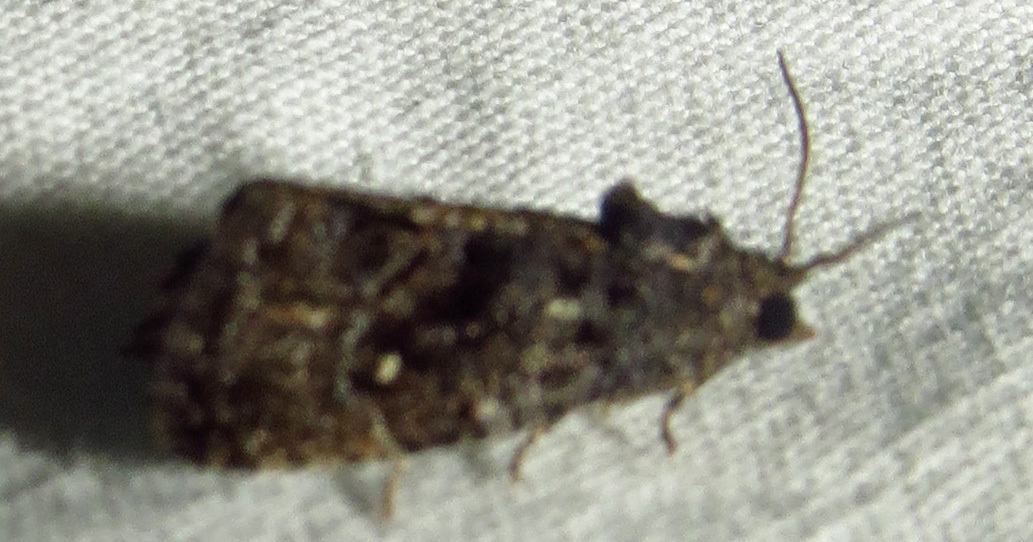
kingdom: Animalia
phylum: Arthropoda
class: Insecta
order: Lepidoptera
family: Tortricidae
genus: Gymnandrosoma
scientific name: Gymnandrosoma punctidiscanum
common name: Dotted ecdytolopha moth
